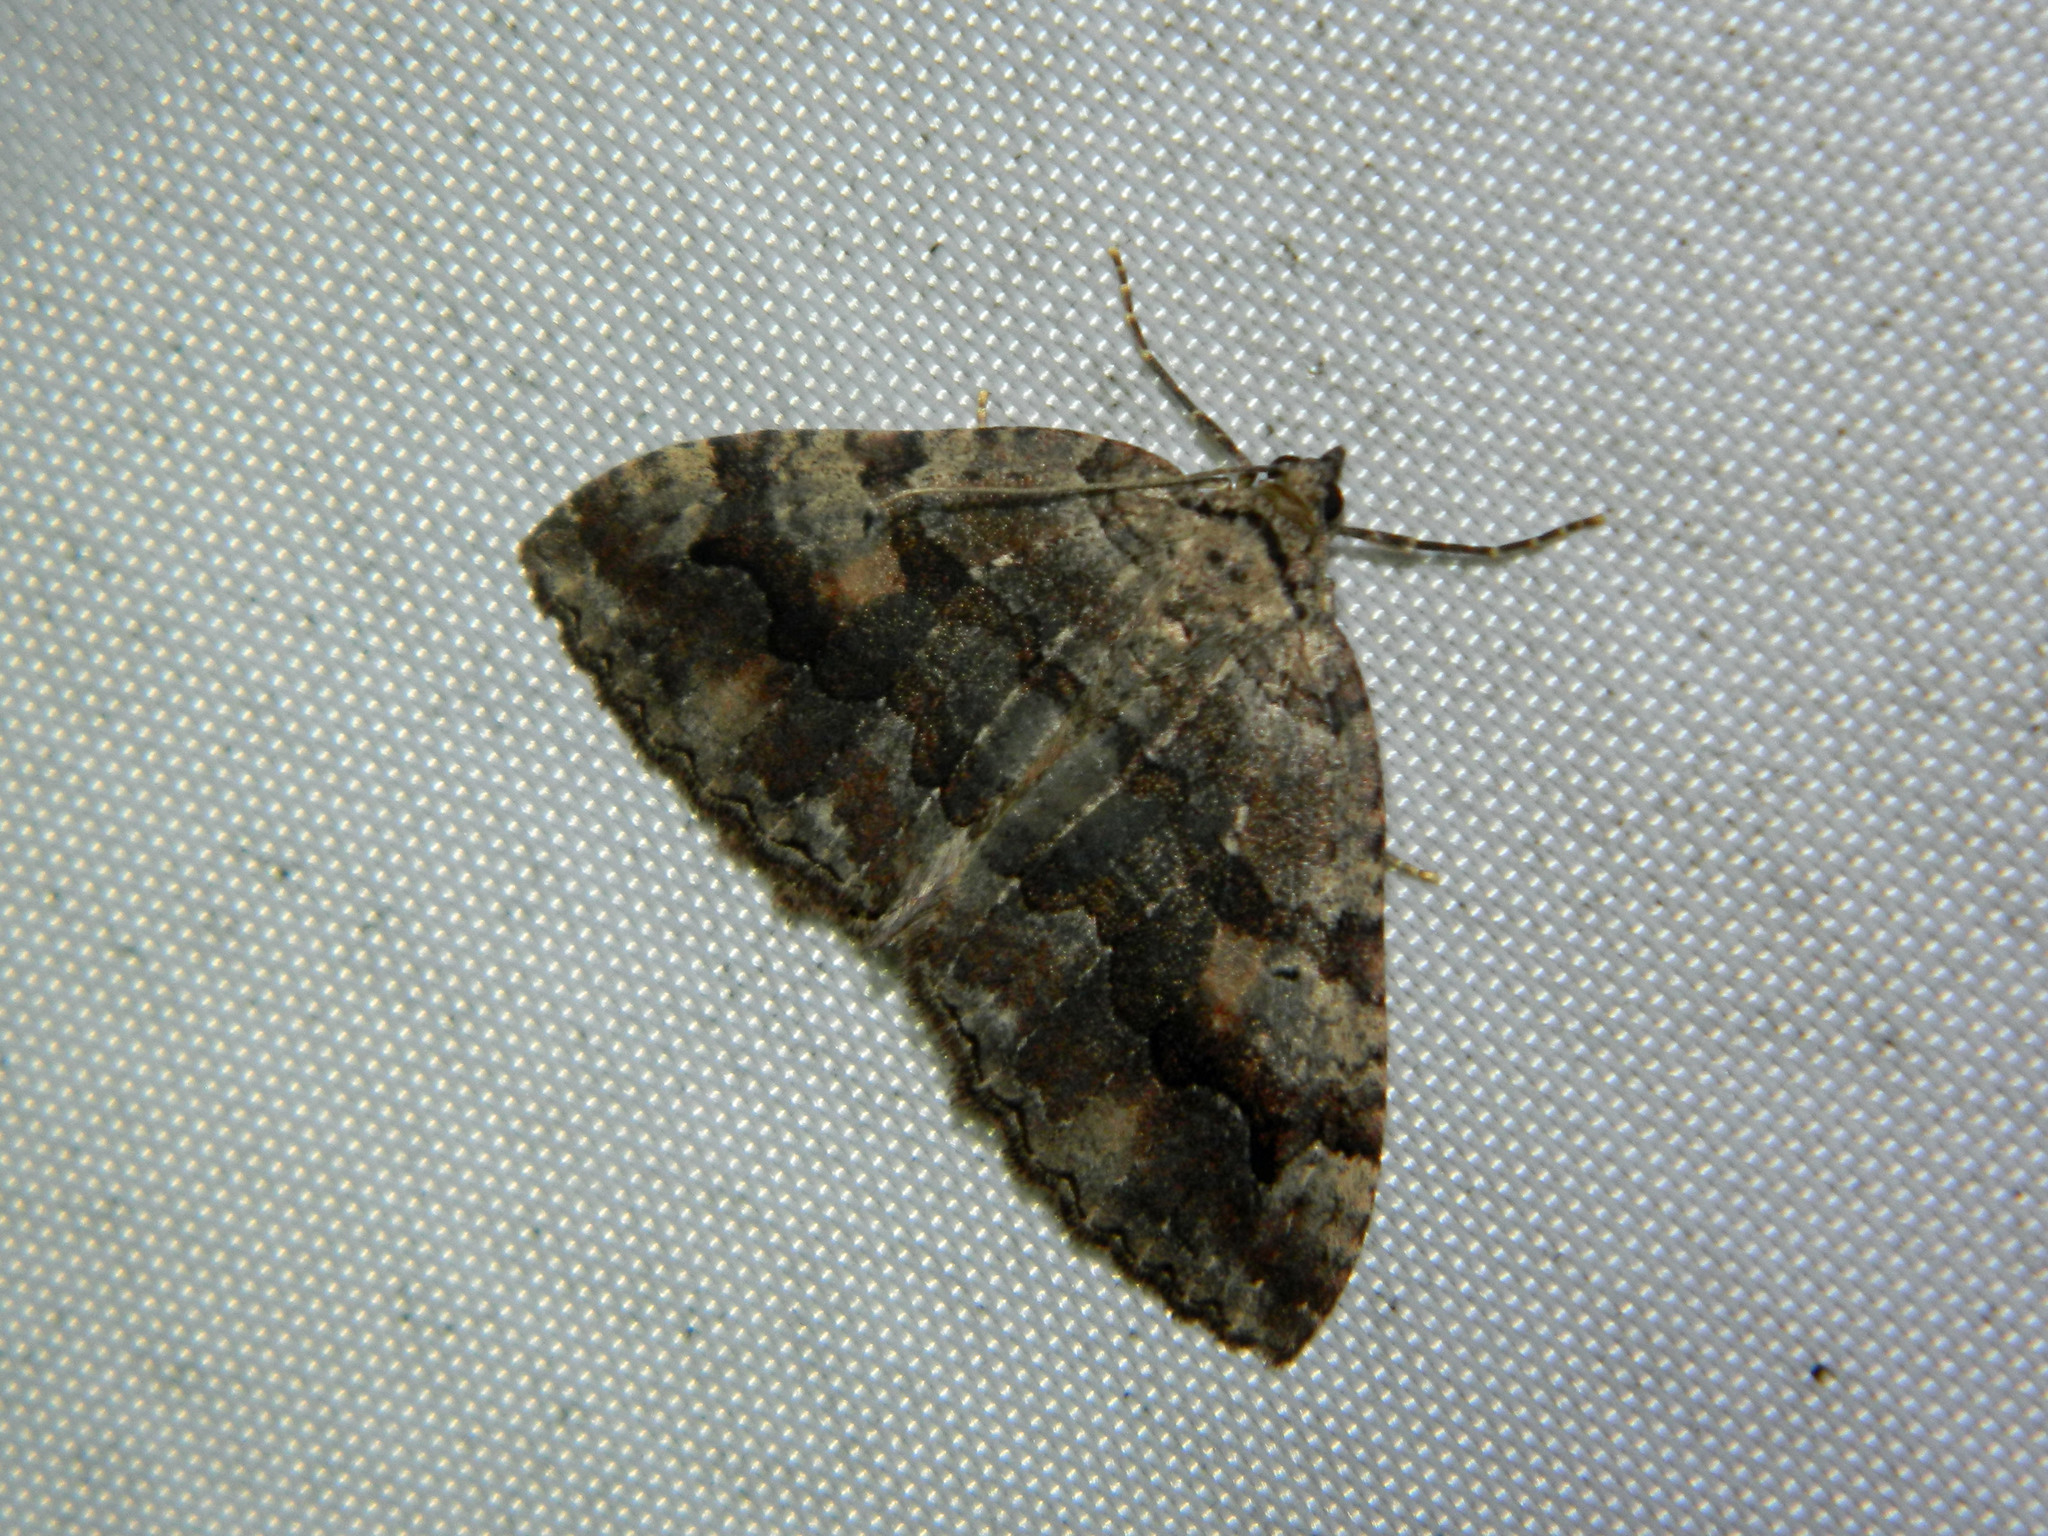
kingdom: Animalia
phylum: Arthropoda
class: Insecta
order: Lepidoptera
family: Geometridae
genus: Triphosa
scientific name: Triphosa haesitata
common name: Tissue moth
